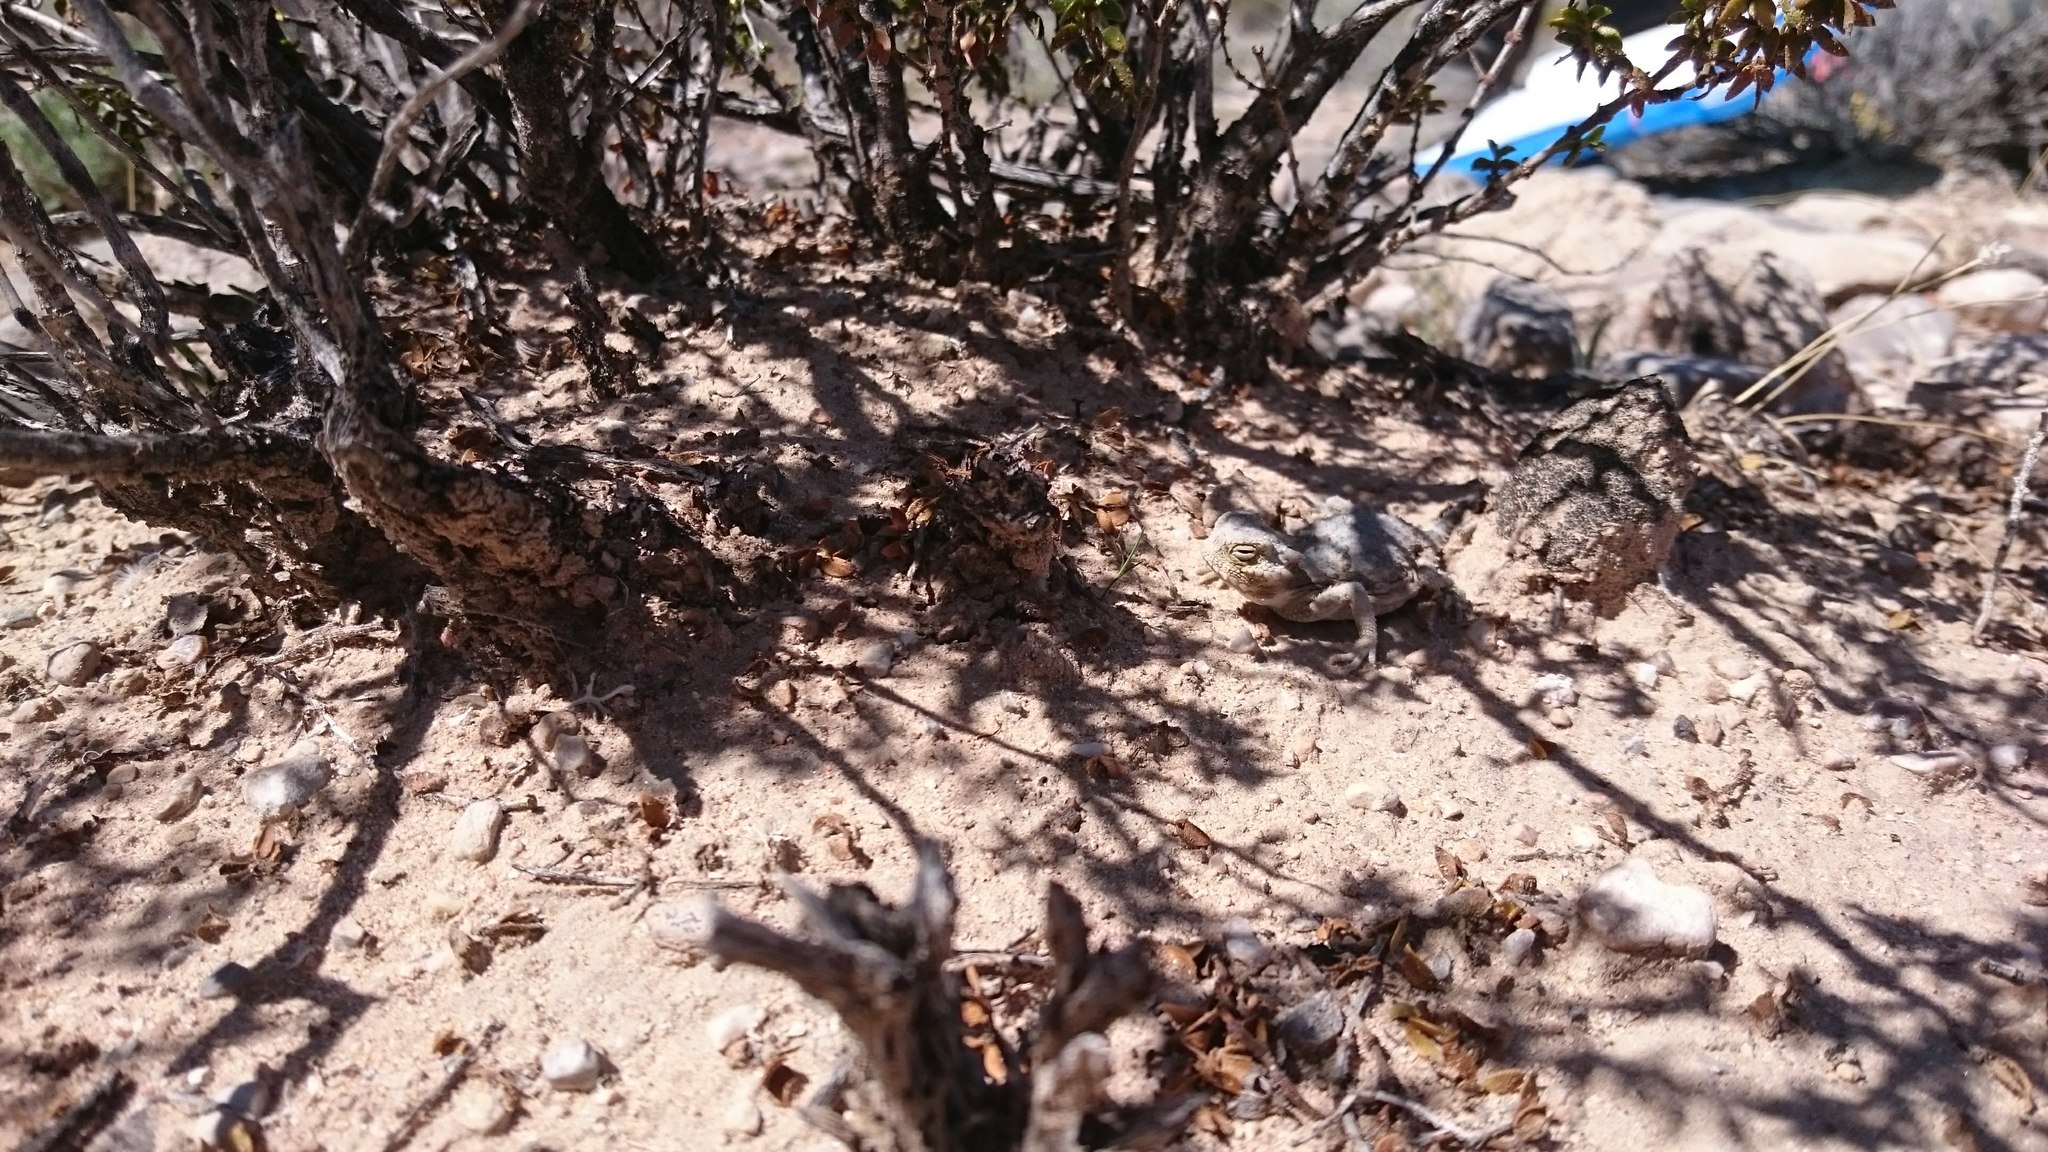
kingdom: Animalia
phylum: Chordata
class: Squamata
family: Phrynosomatidae
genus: Phrynosoma
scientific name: Phrynosoma platyrhinos
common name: Desert horned lizard
